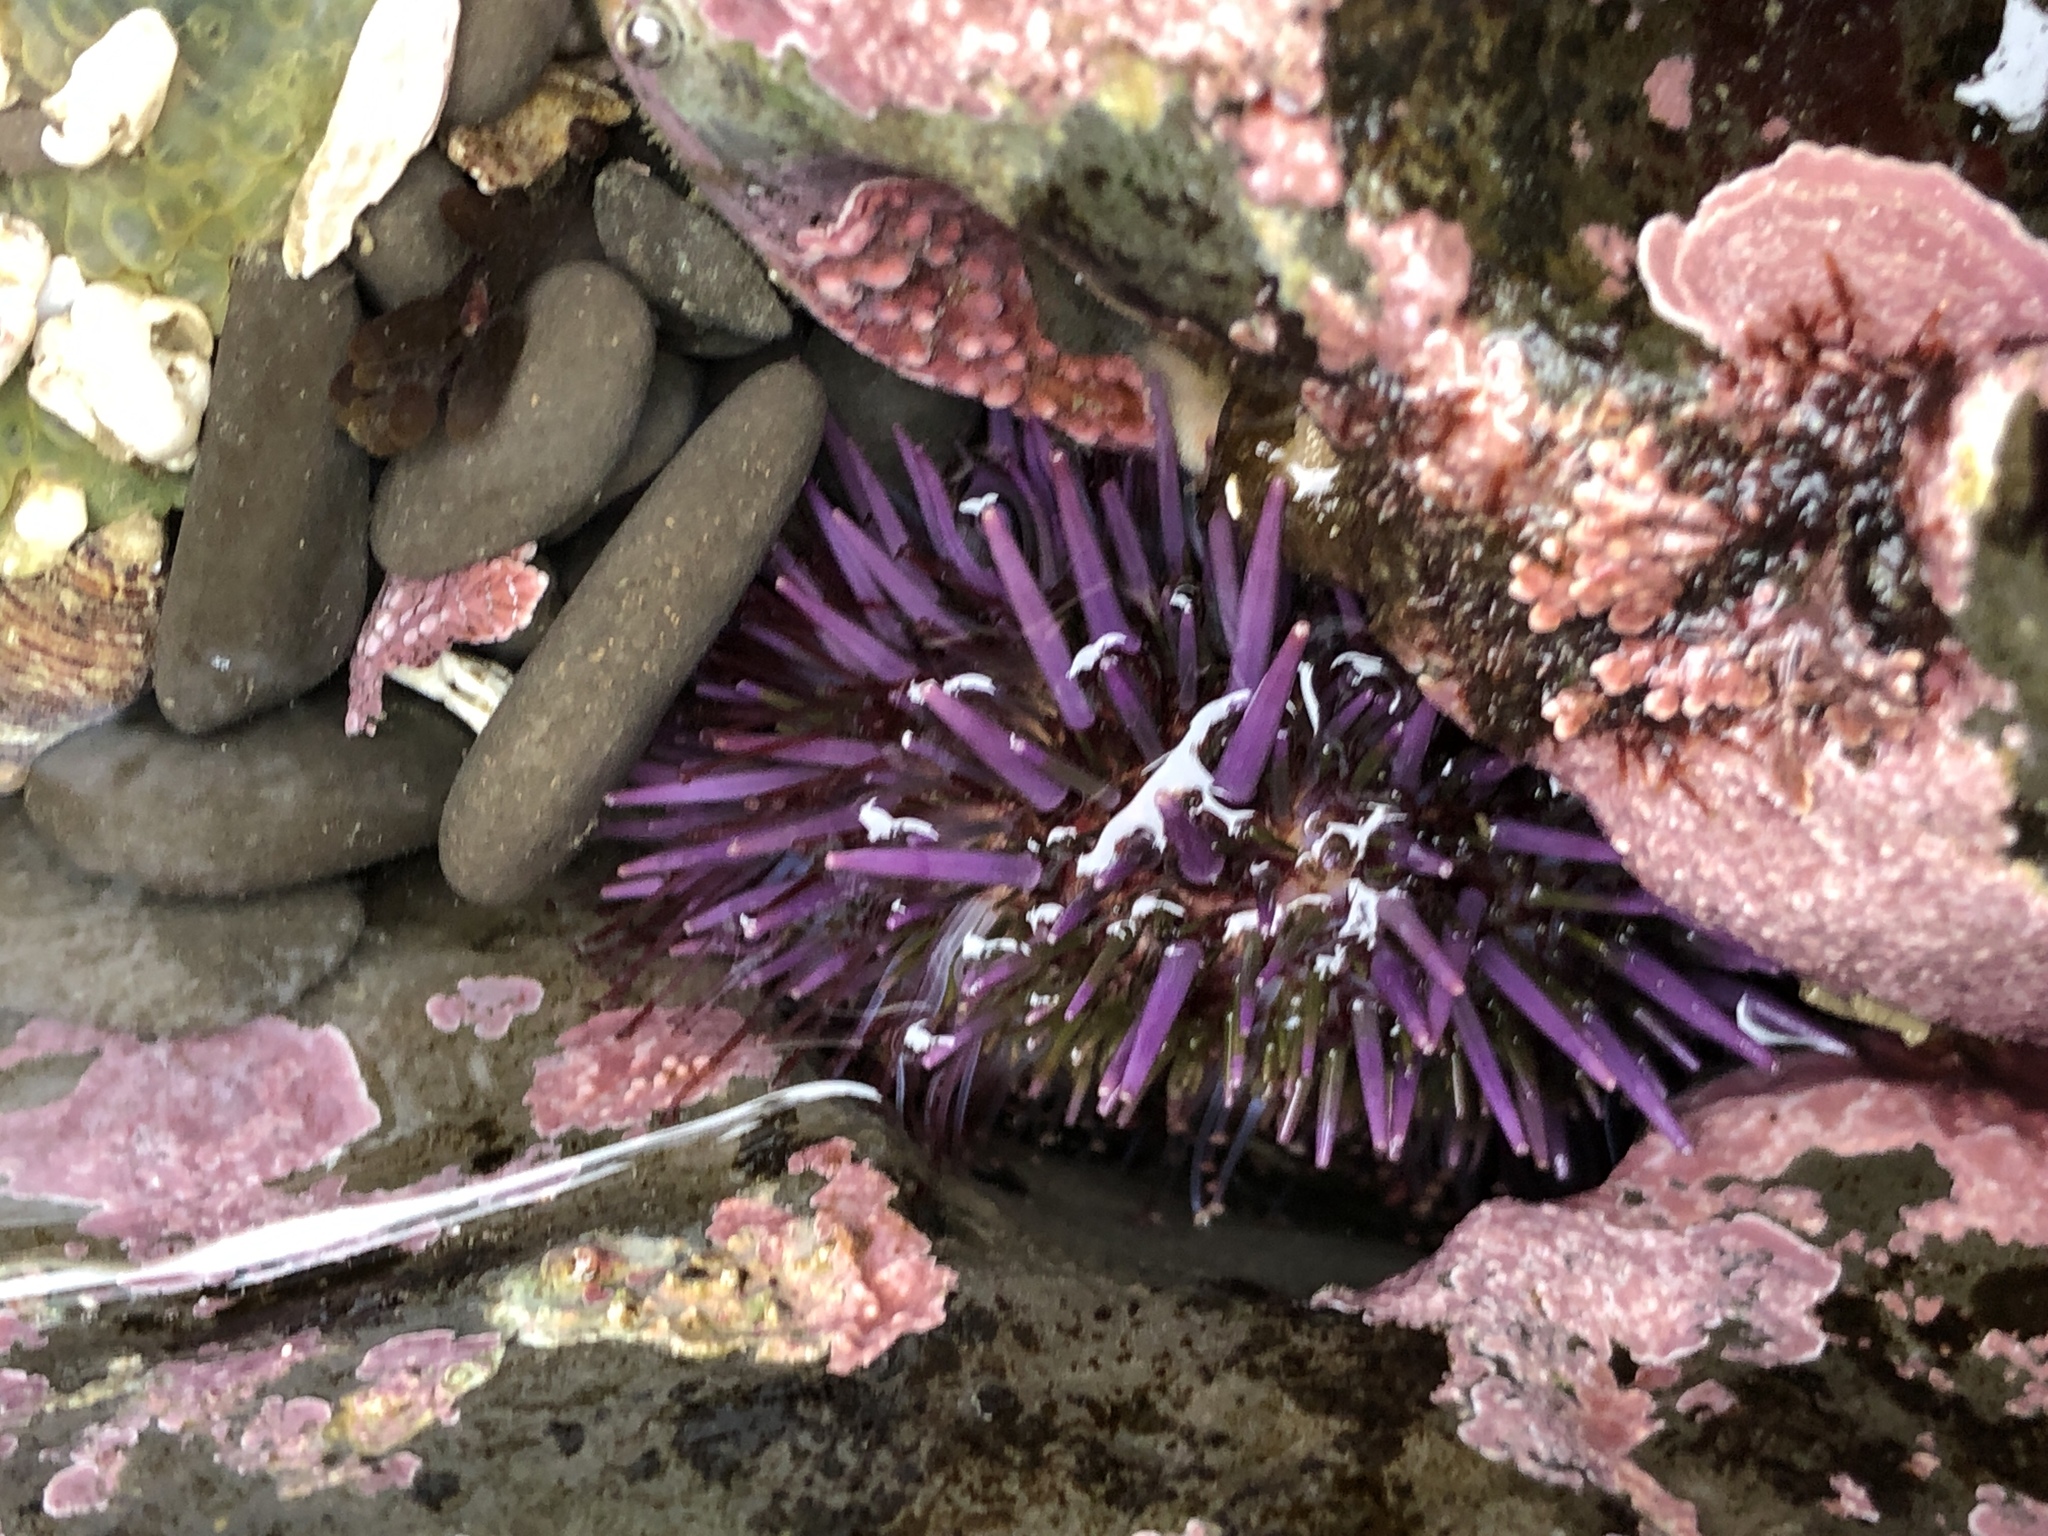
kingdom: Animalia
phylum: Echinodermata
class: Echinoidea
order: Camarodonta
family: Strongylocentrotidae
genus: Strongylocentrotus
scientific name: Strongylocentrotus purpuratus
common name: Purple sea urchin
